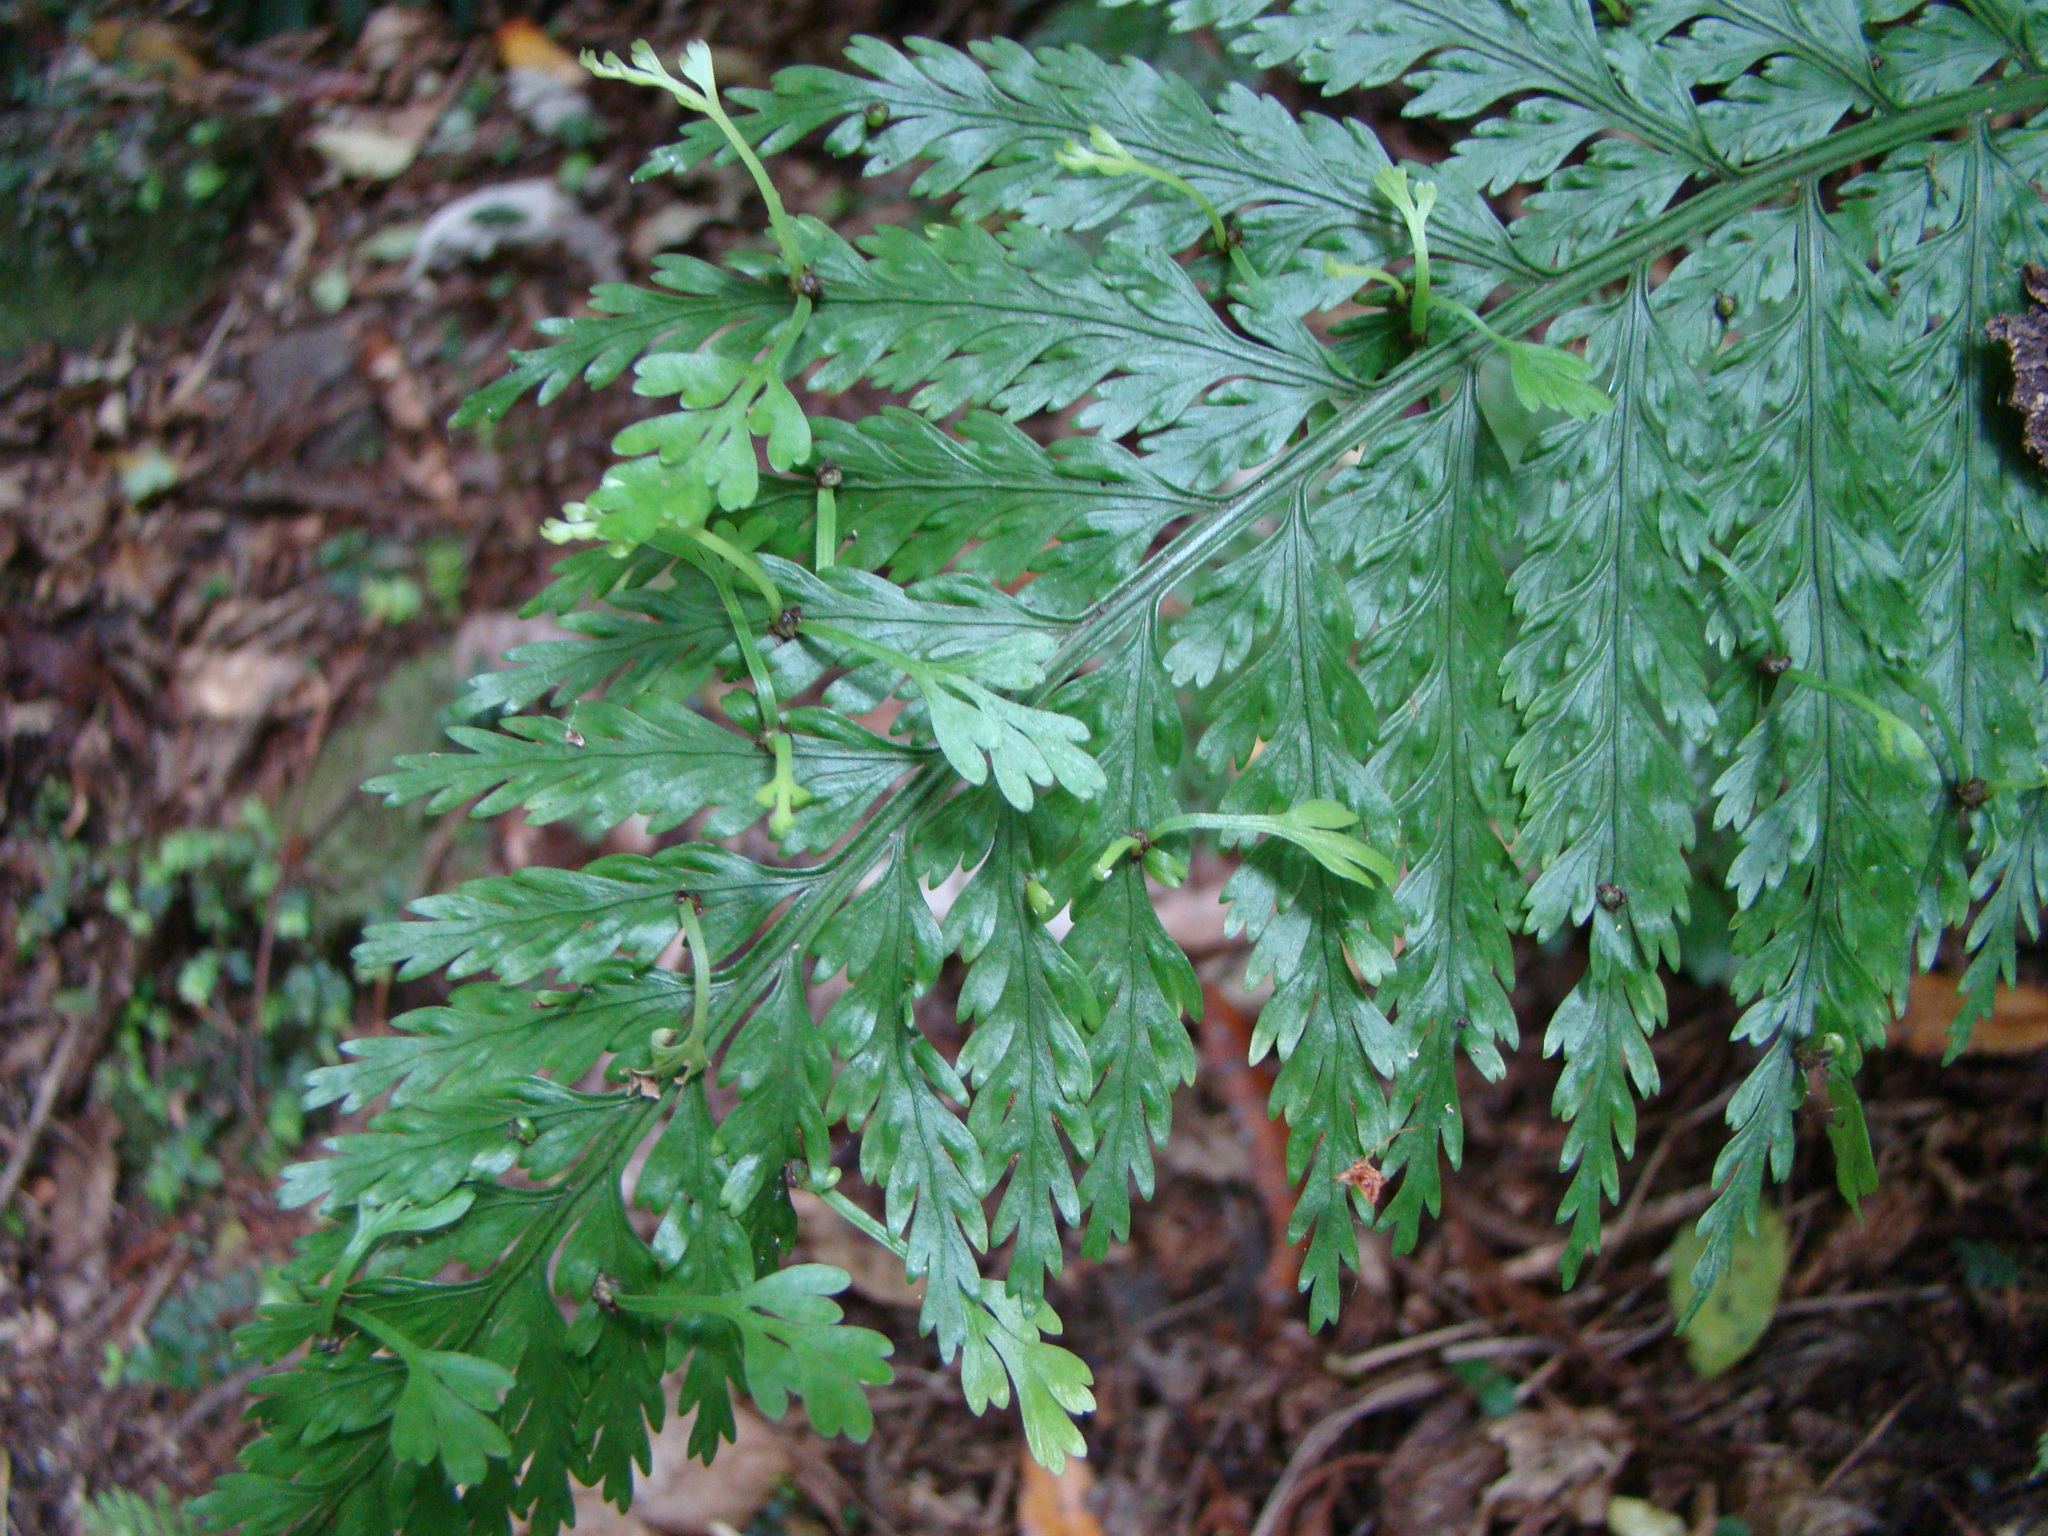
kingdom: Plantae
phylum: Tracheophyta
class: Polypodiopsida
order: Polypodiales
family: Aspleniaceae
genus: Asplenium
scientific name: Asplenium bulbiferum
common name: Mother fern
